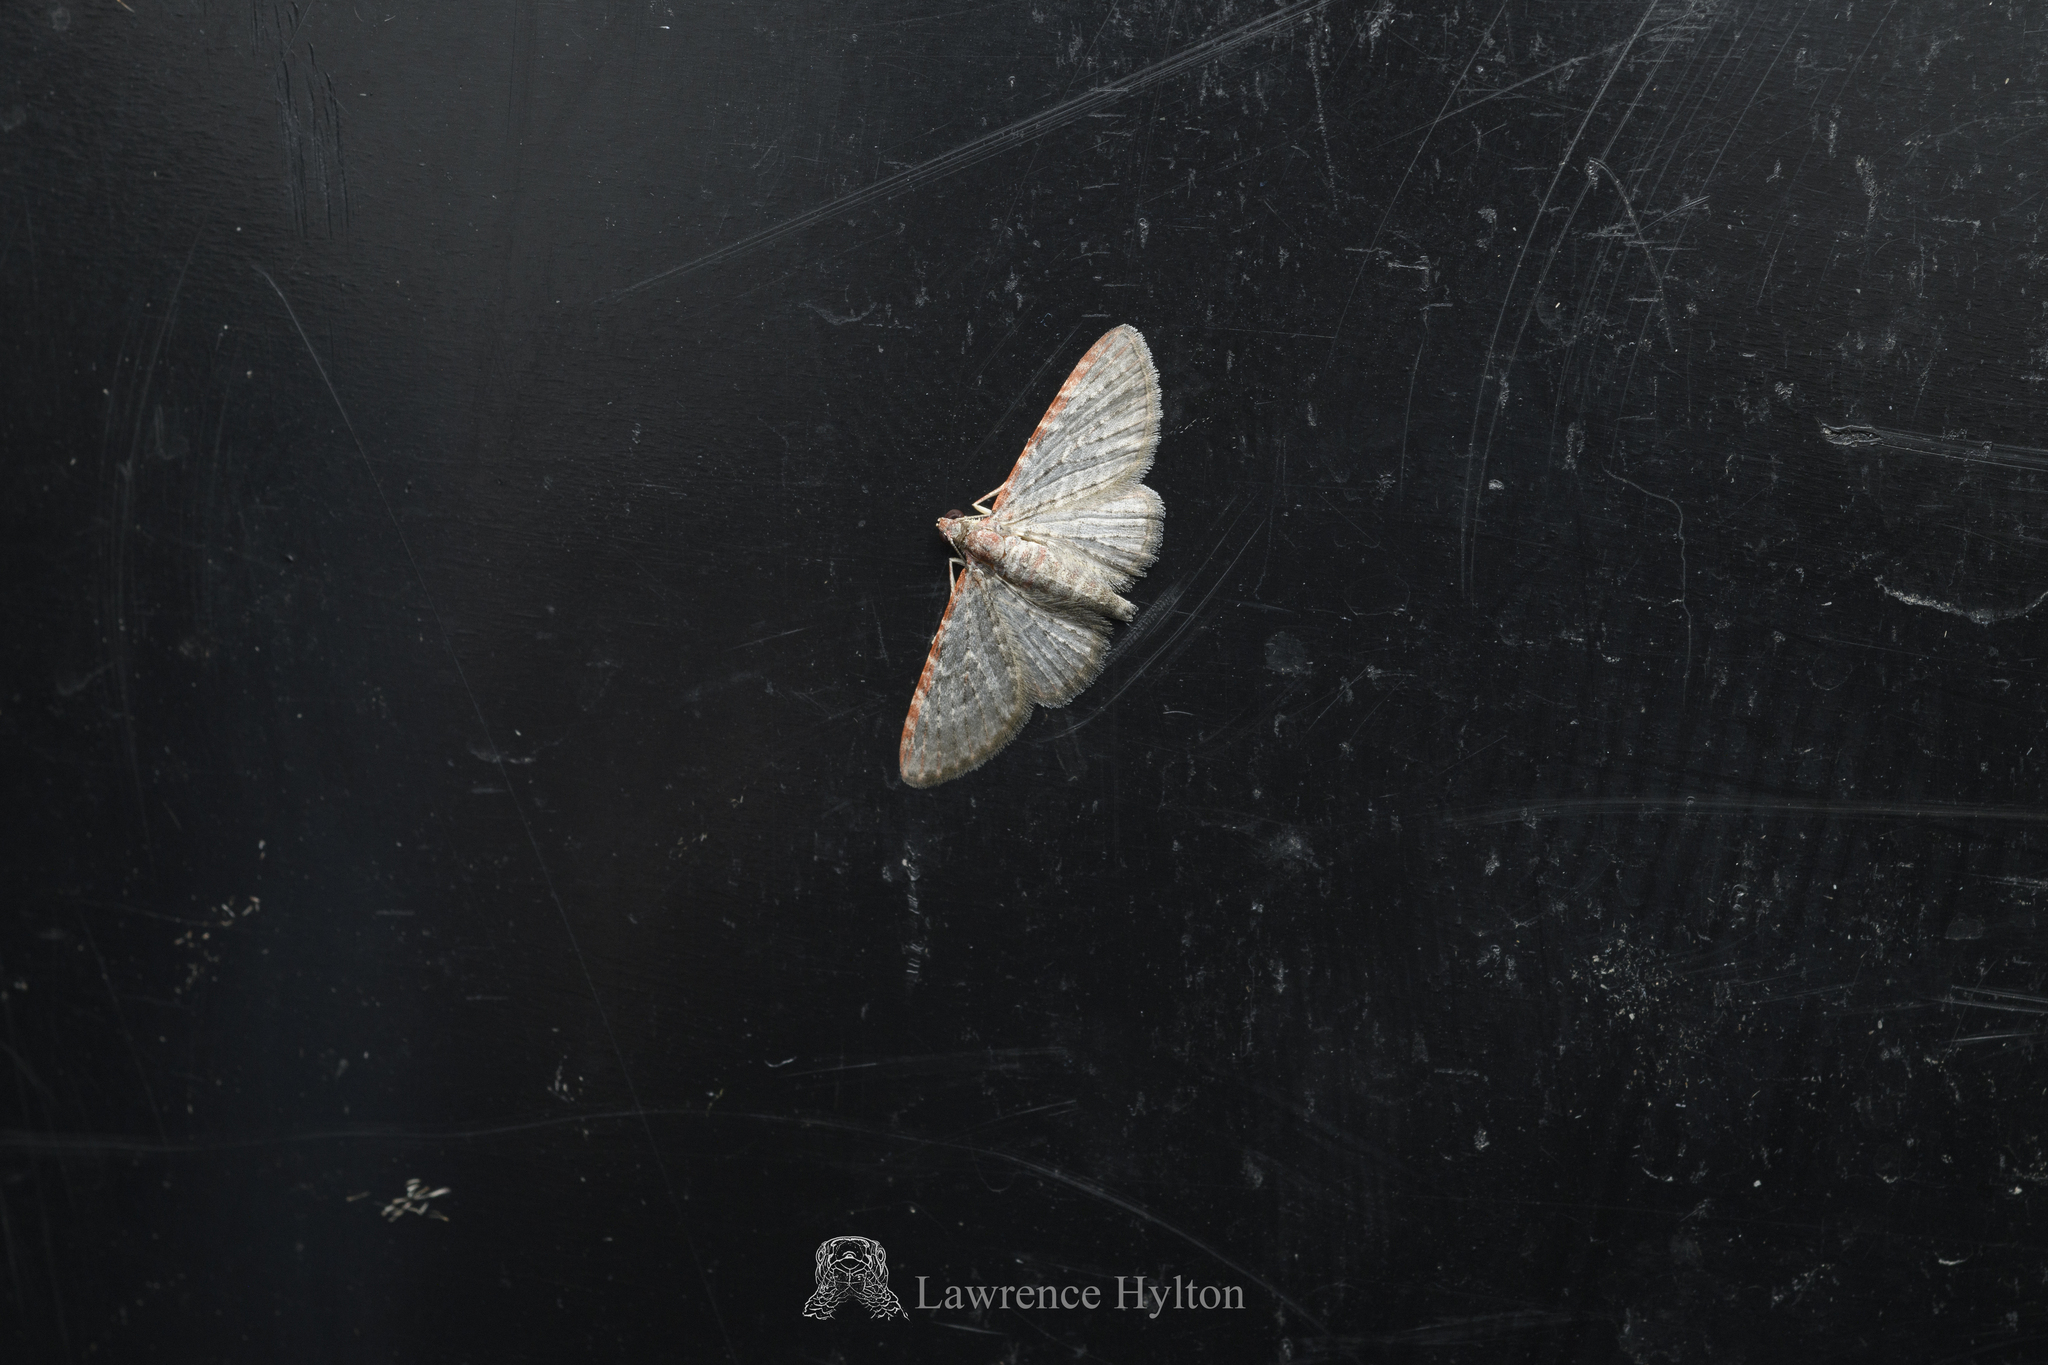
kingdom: Animalia
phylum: Arthropoda
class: Insecta
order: Lepidoptera
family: Geometridae
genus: Sigilliclystis
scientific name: Sigilliclystis
